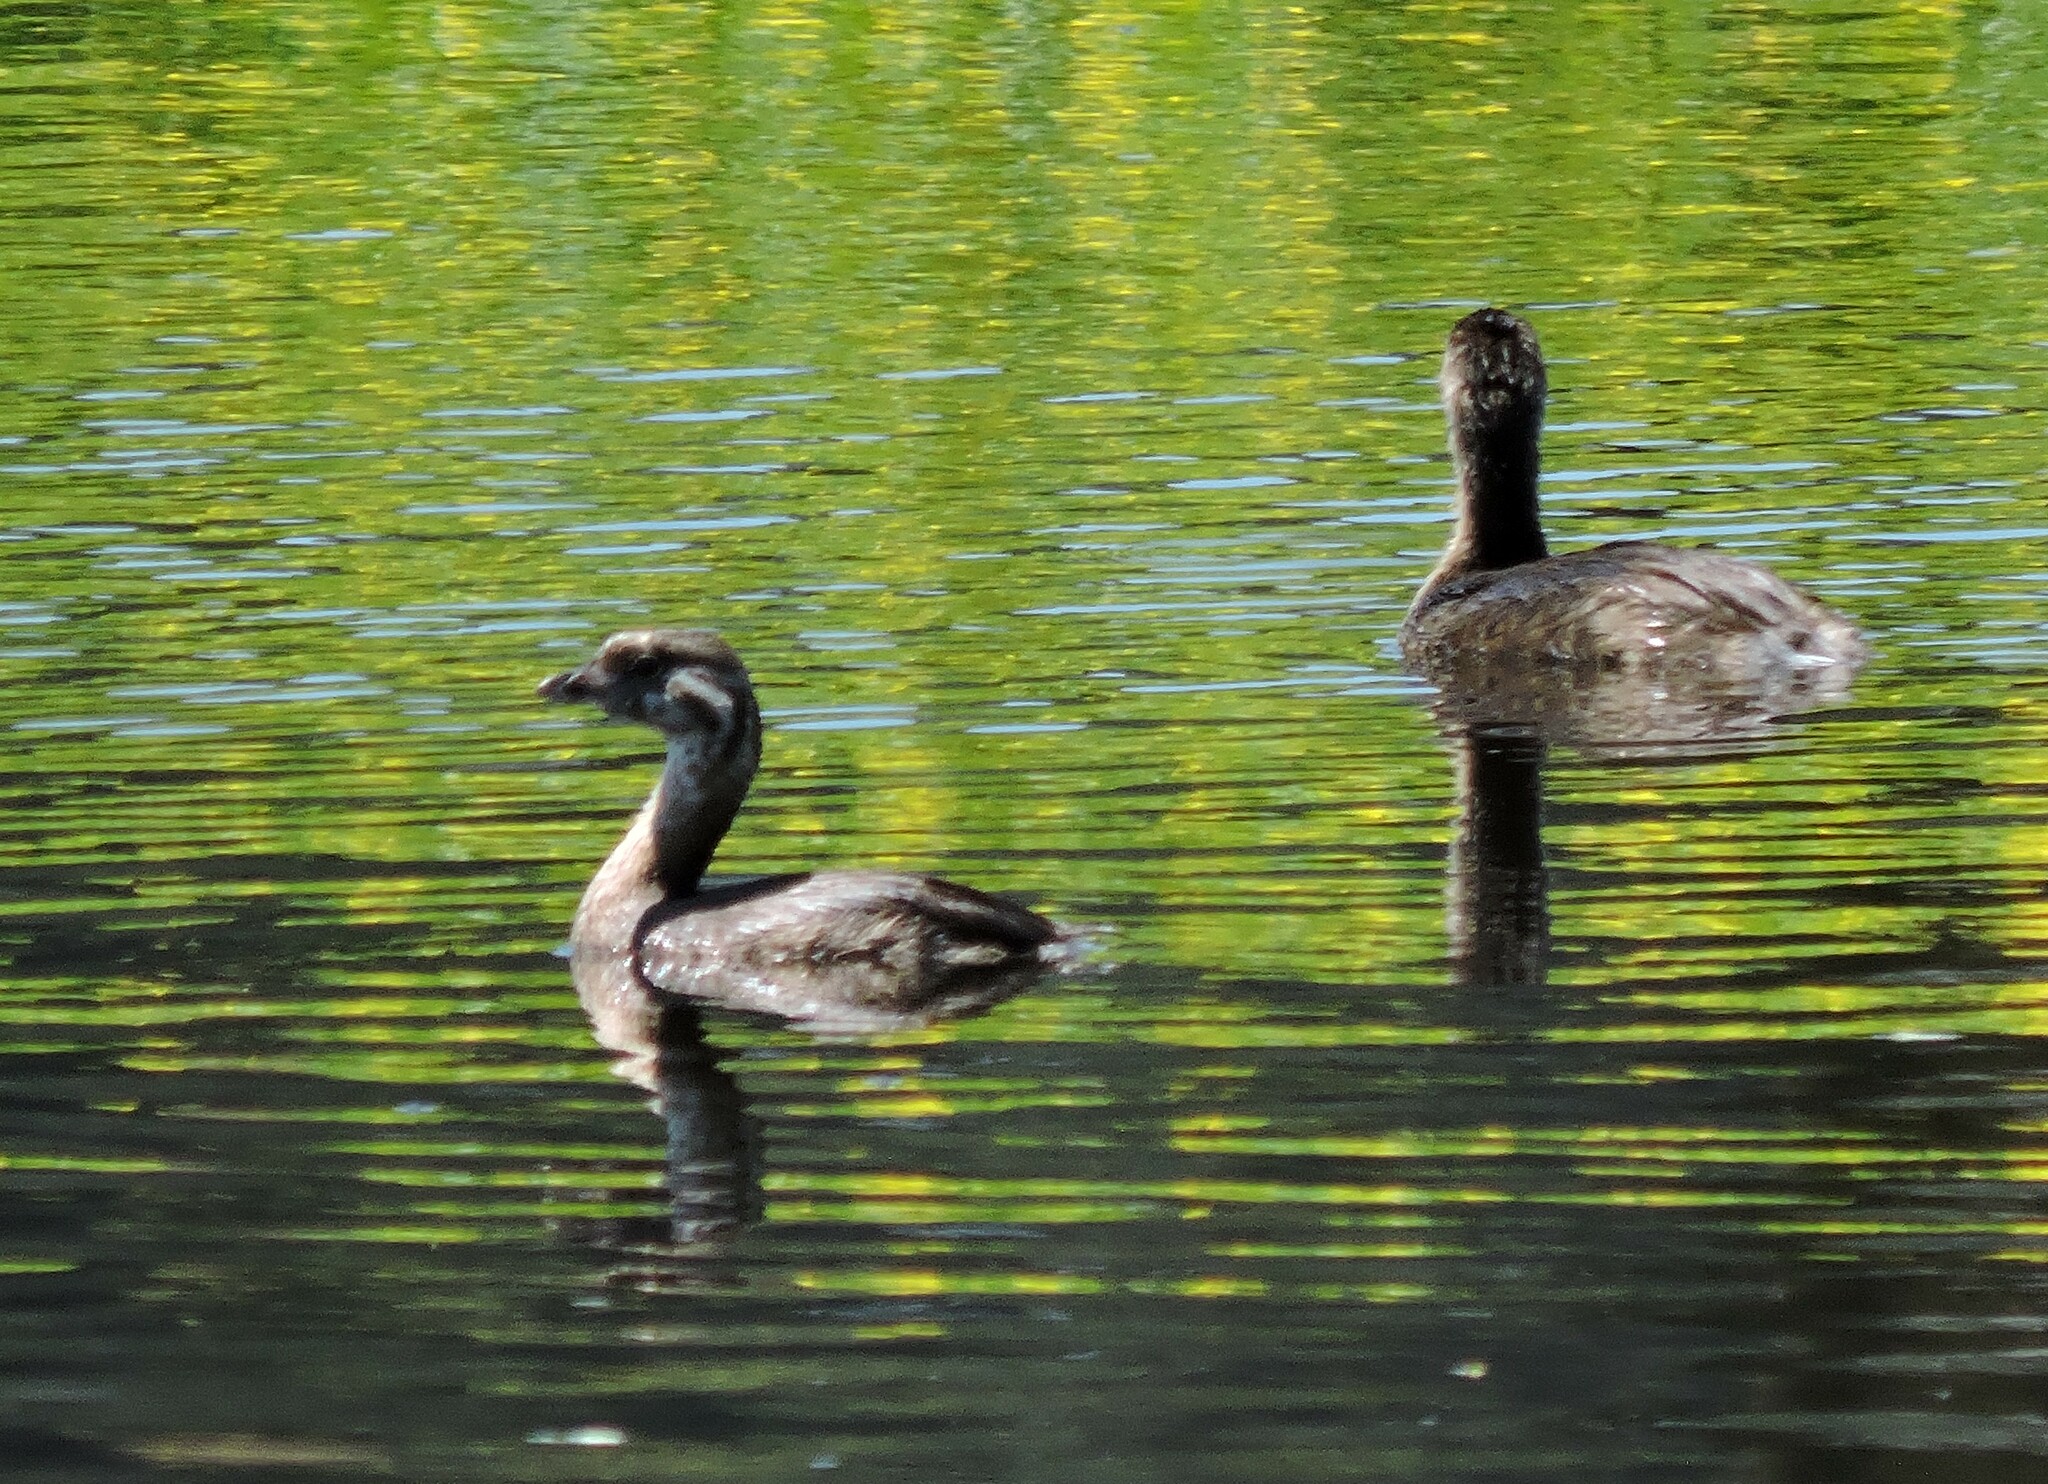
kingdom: Animalia
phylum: Chordata
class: Aves
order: Podicipediformes
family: Podicipedidae
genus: Podilymbus
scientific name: Podilymbus podiceps
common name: Pied-billed grebe
